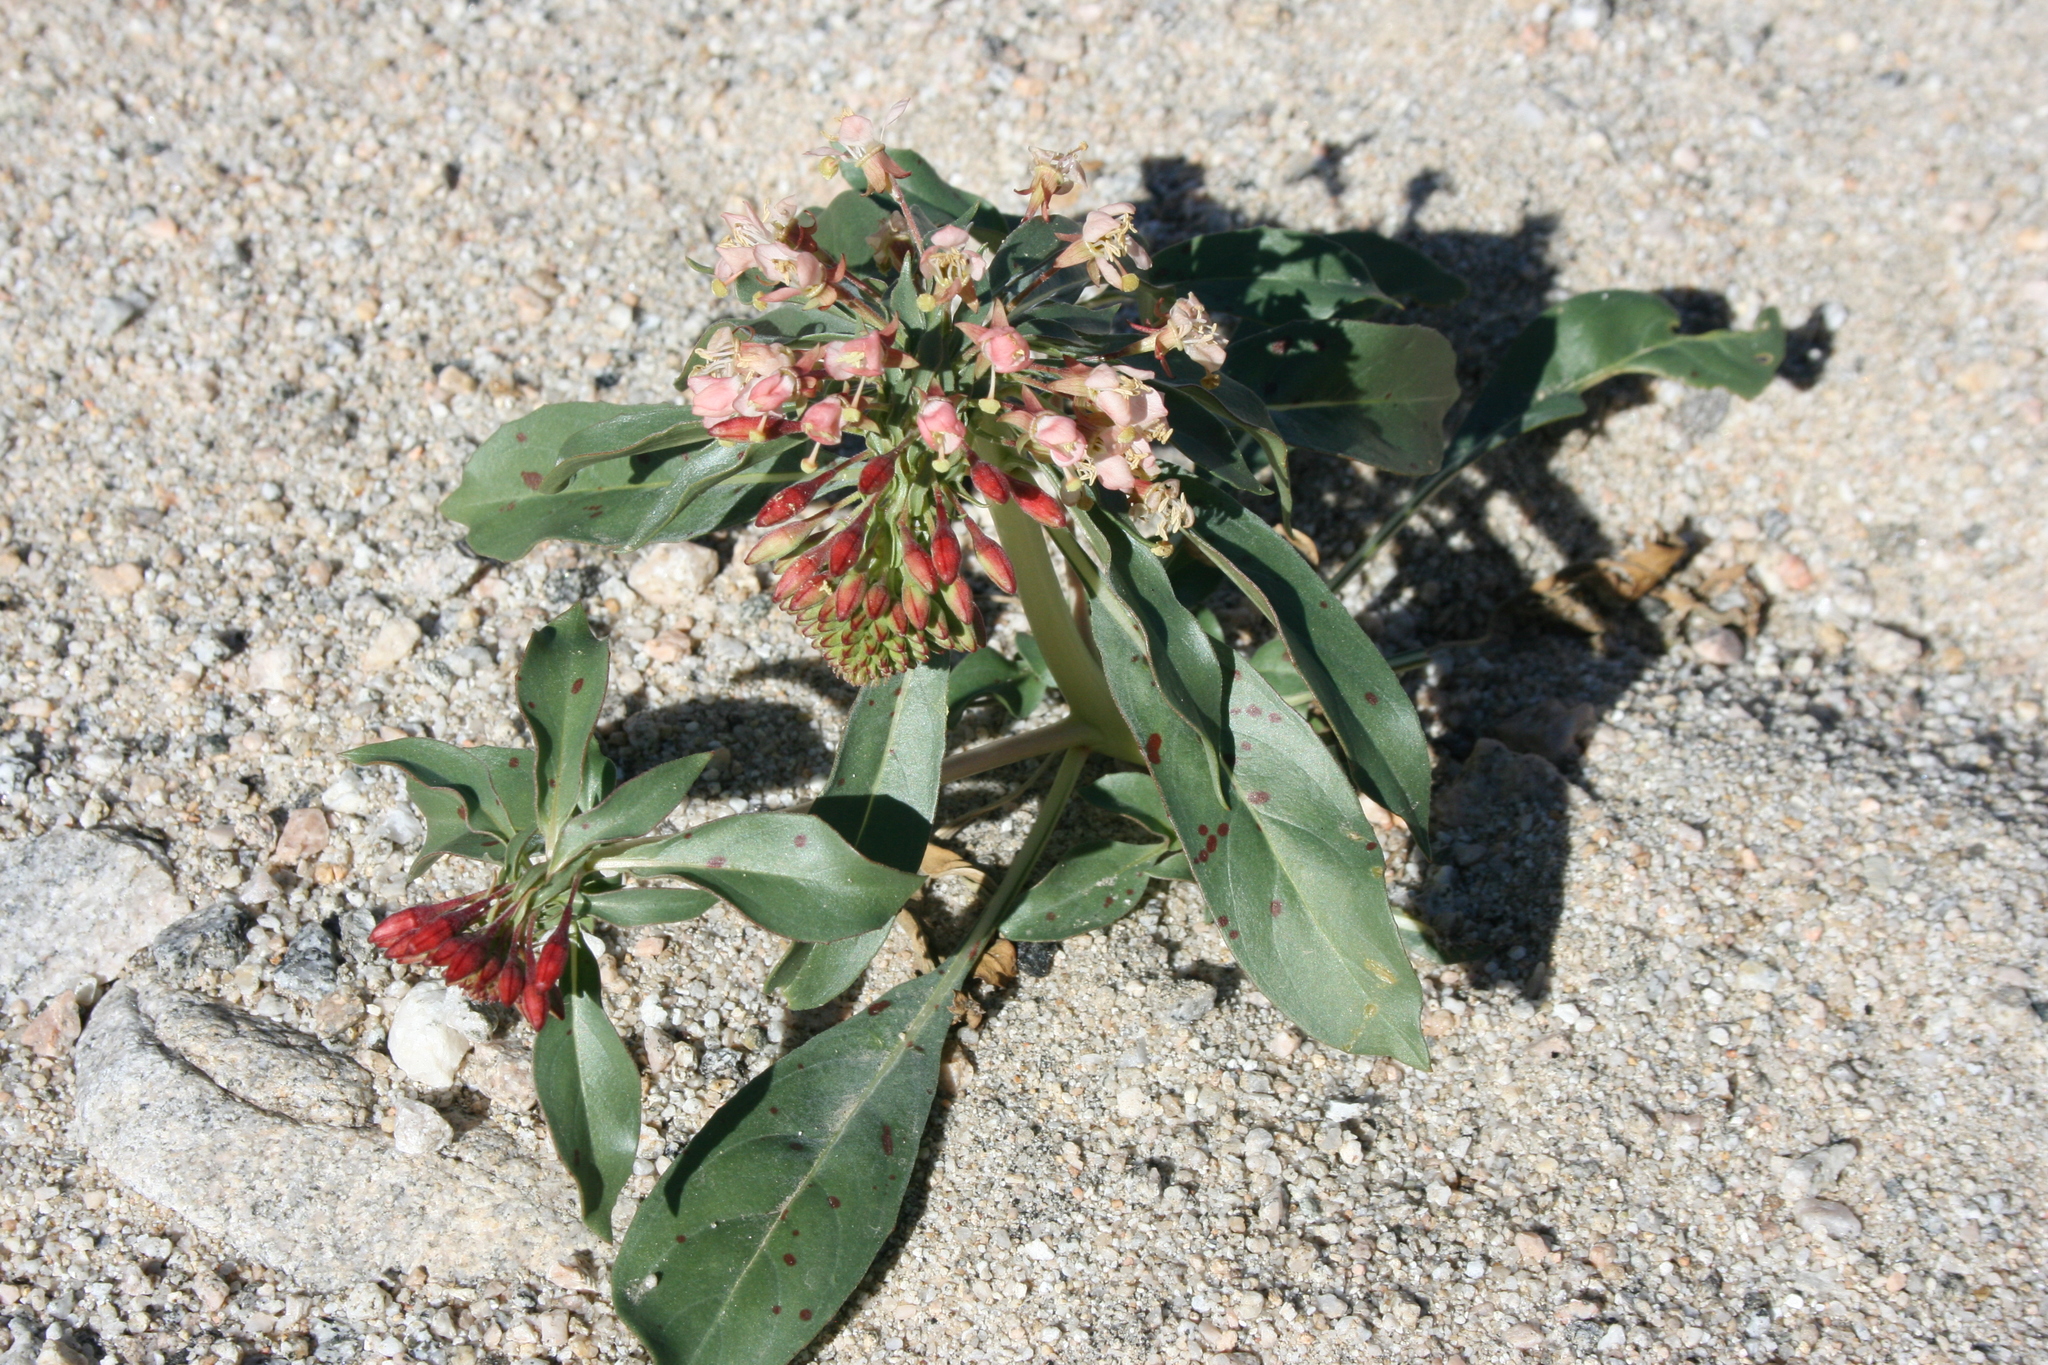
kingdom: Plantae
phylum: Tracheophyta
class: Magnoliopsida
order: Myrtales
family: Onagraceae
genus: Eremothera
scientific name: Eremothera boothii
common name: Booth's evening primrose
